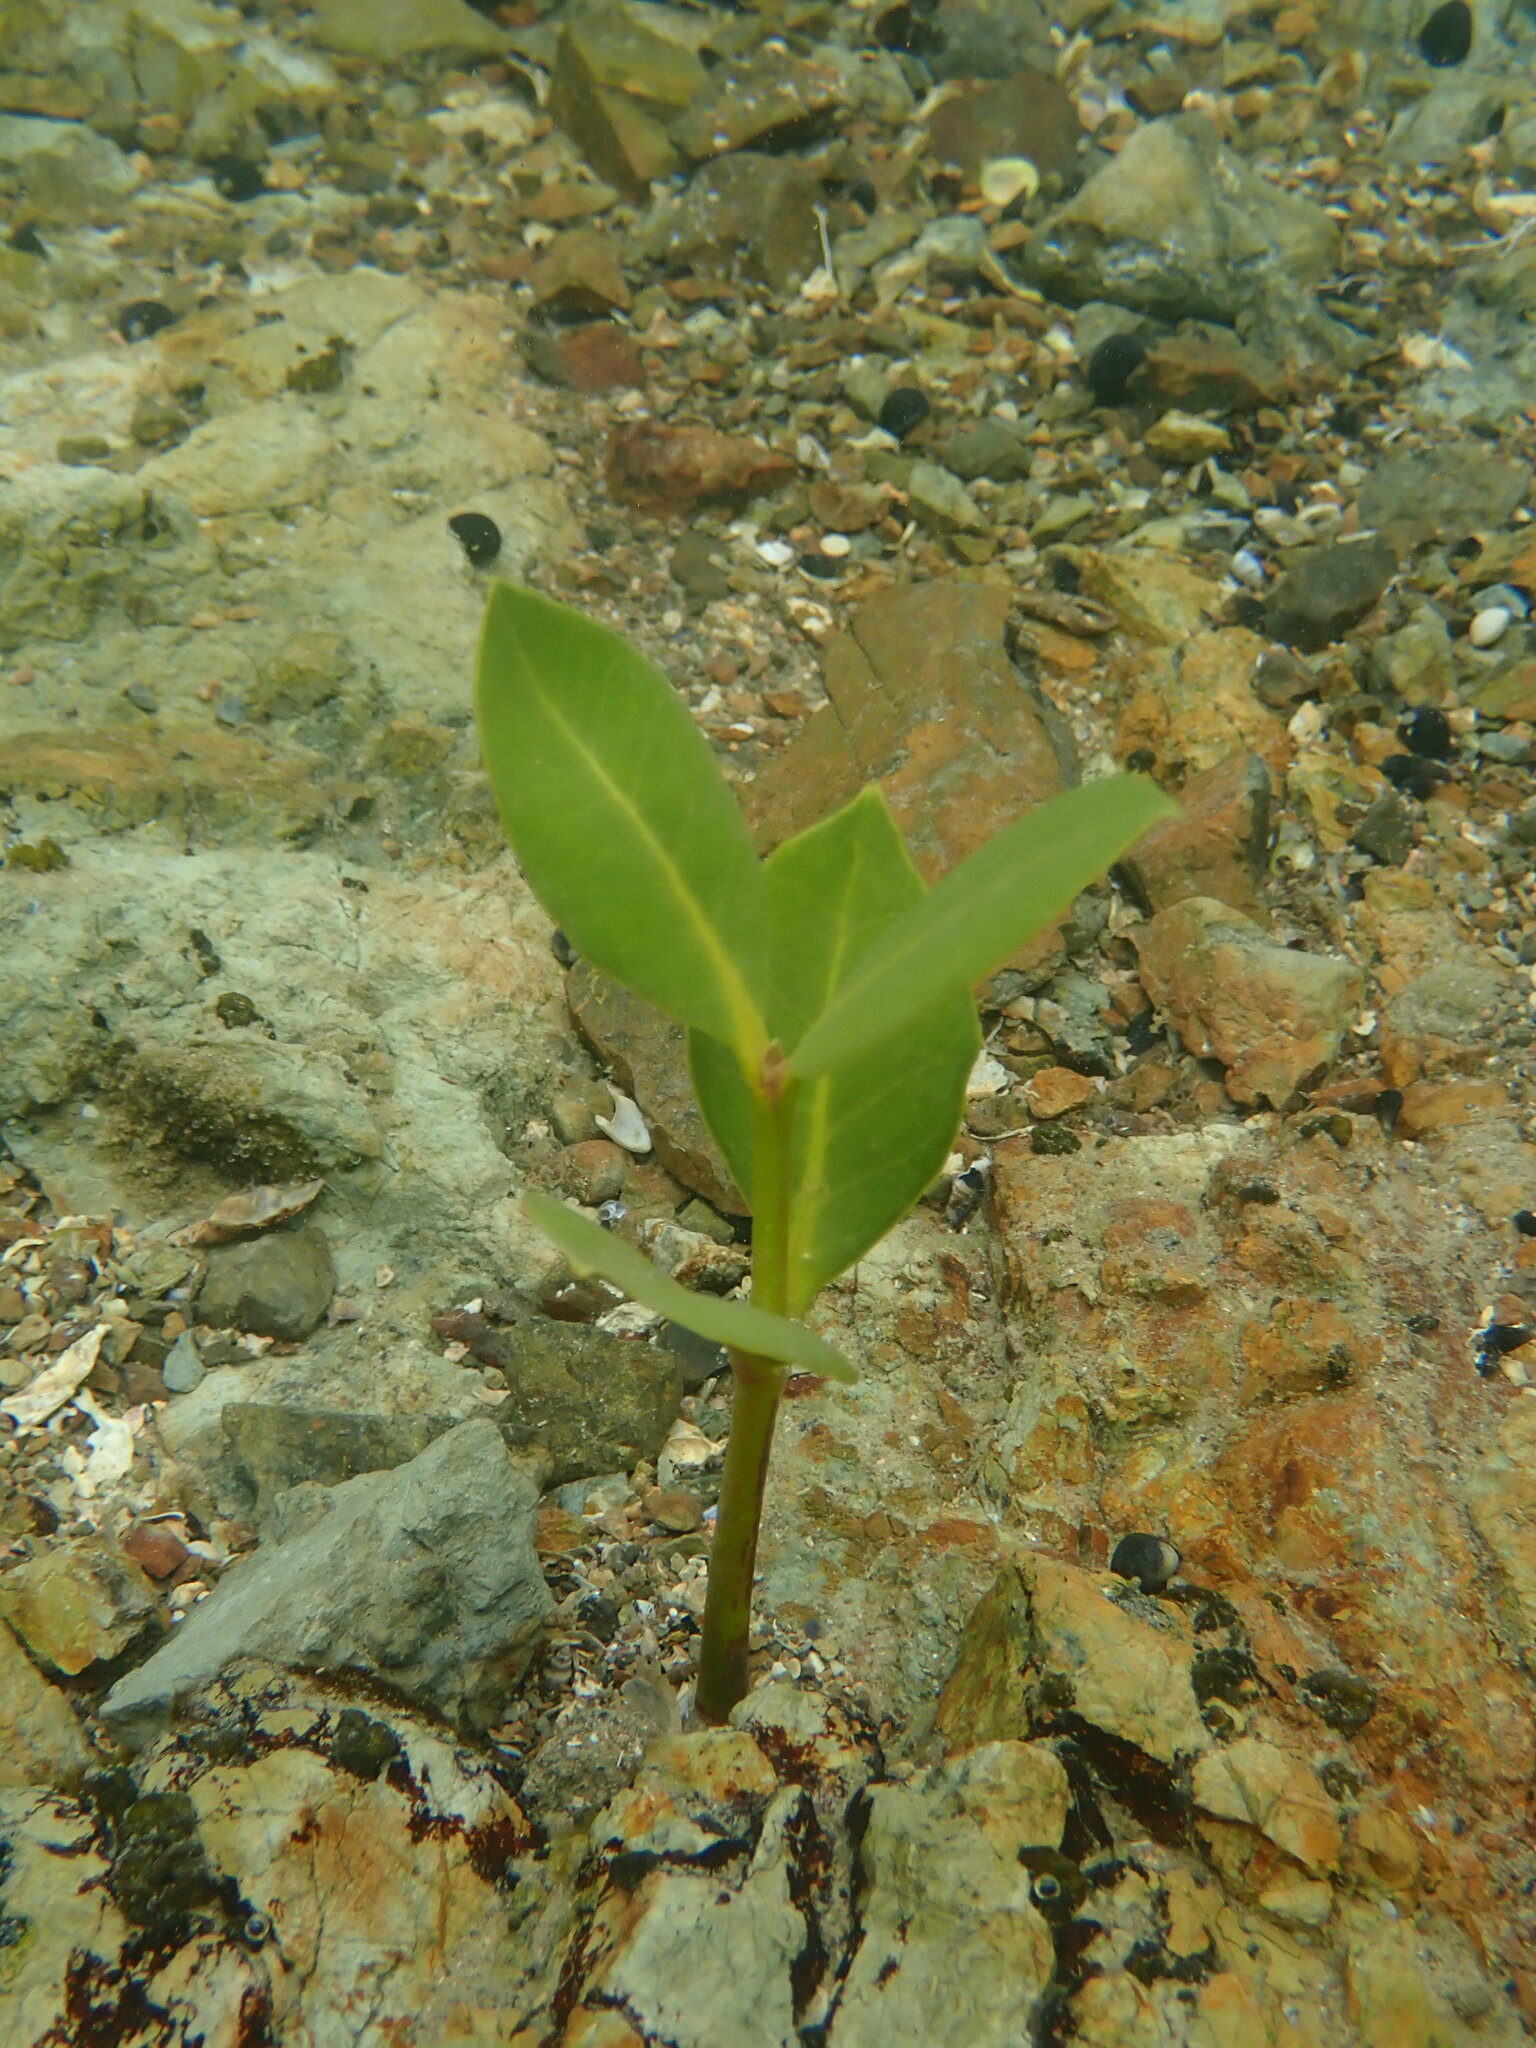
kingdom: Plantae
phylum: Tracheophyta
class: Magnoliopsida
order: Lamiales
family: Acanthaceae
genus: Avicennia
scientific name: Avicennia marina
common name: Gray mangrove
